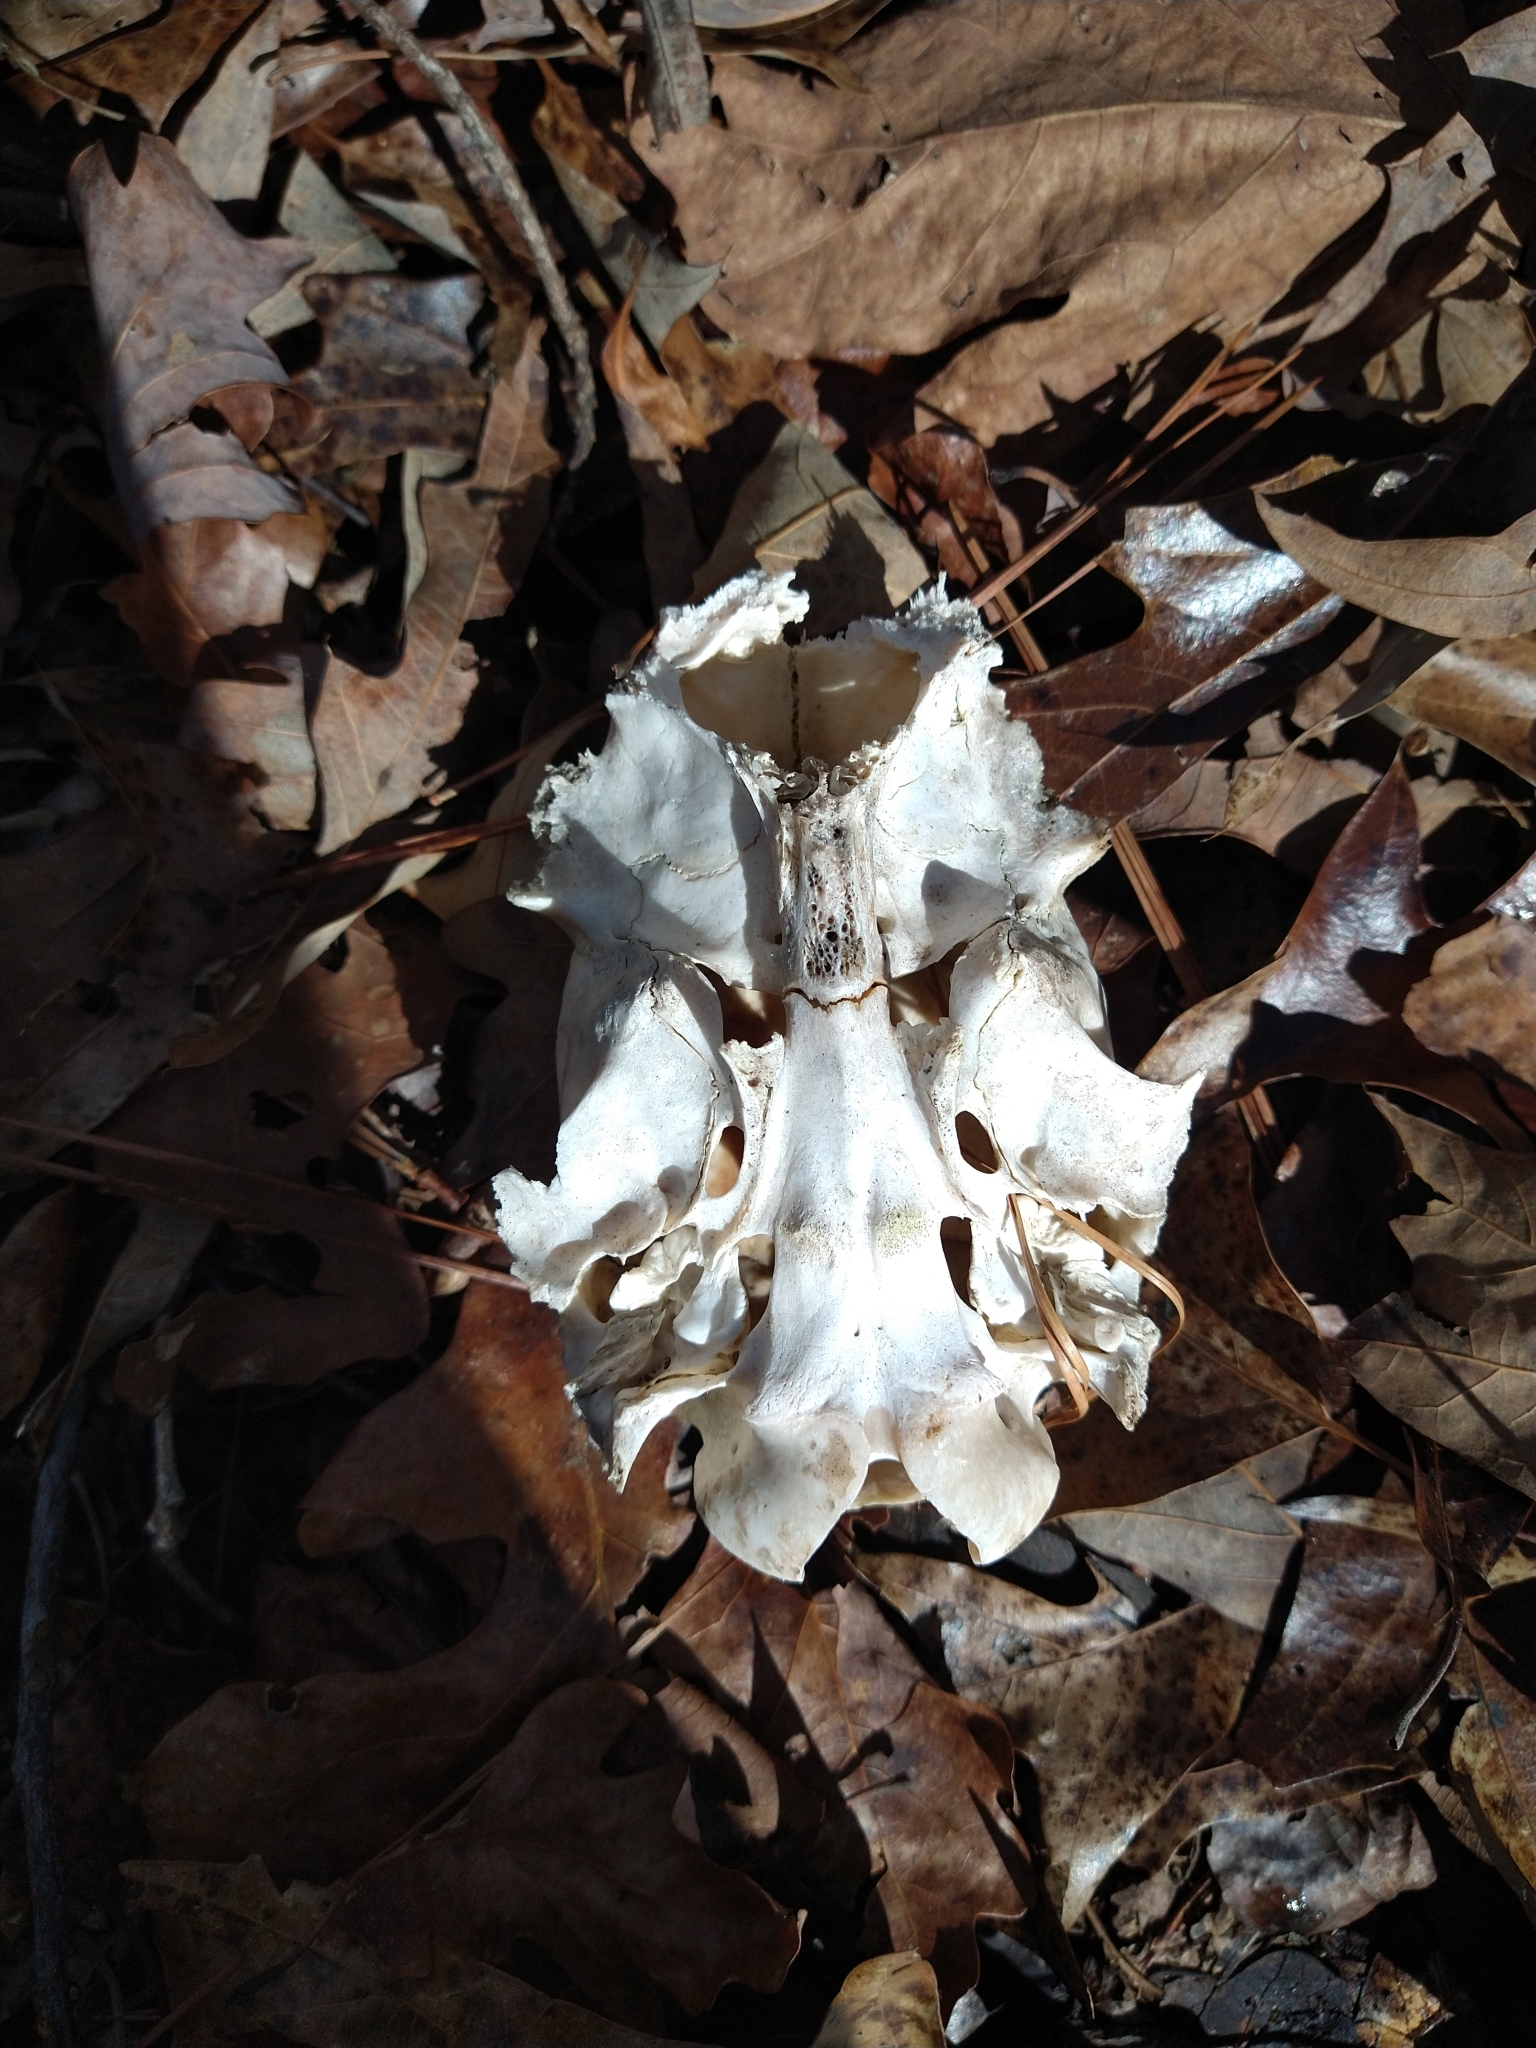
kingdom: Animalia
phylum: Chordata
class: Mammalia
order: Artiodactyla
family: Cervidae
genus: Odocoileus
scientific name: Odocoileus virginianus
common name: White-tailed deer
